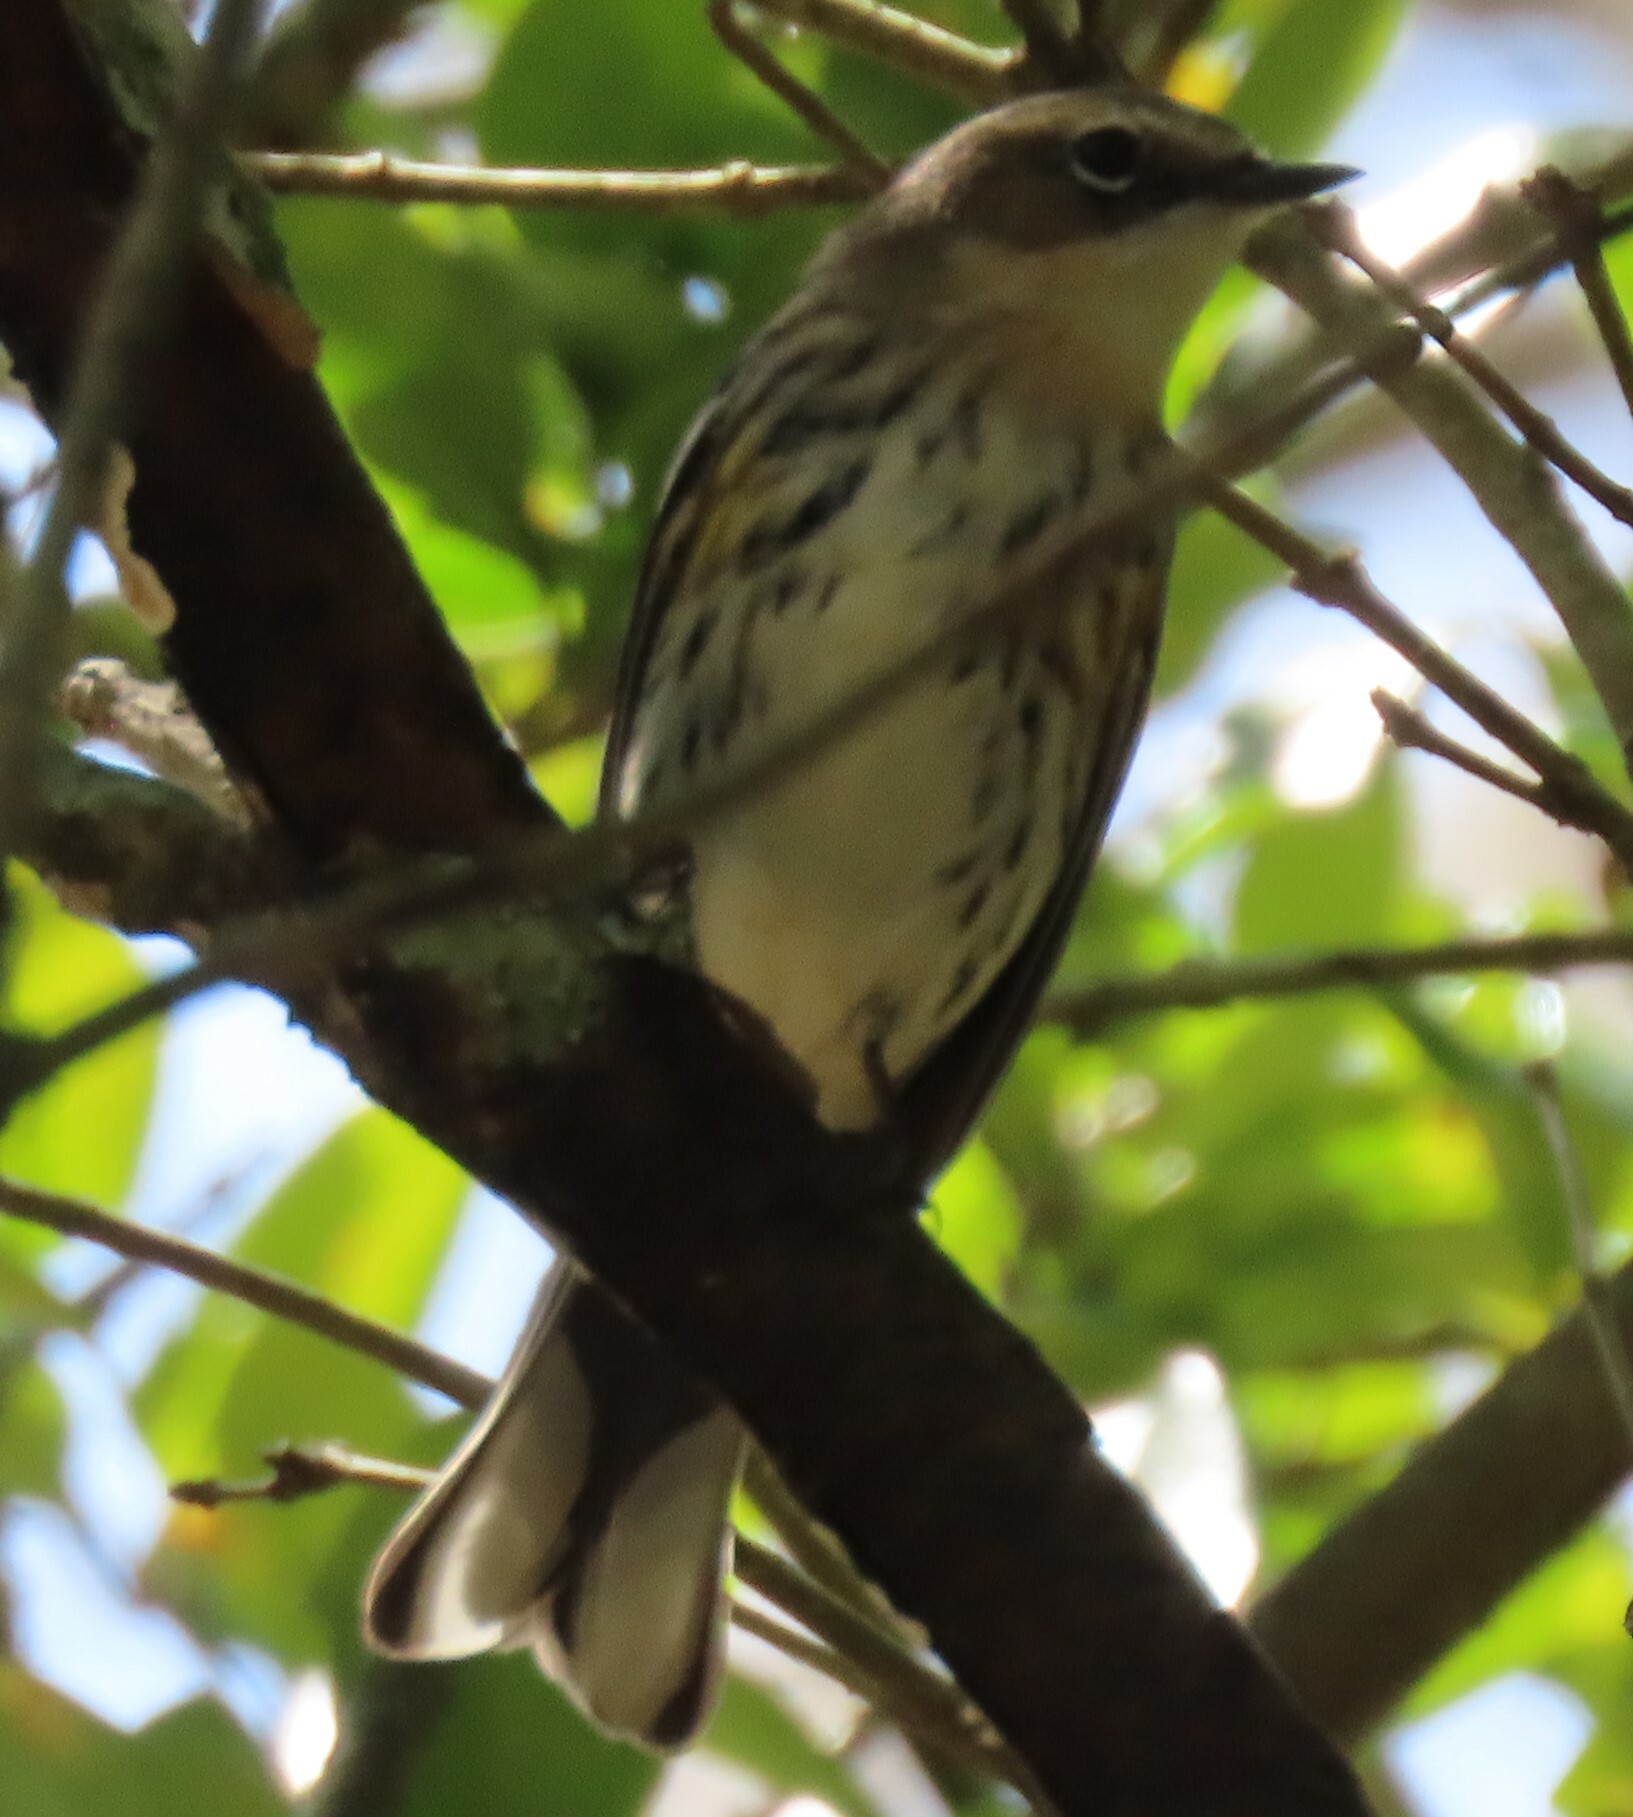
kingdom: Animalia
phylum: Chordata
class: Aves
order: Passeriformes
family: Parulidae
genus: Setophaga
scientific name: Setophaga coronata
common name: Myrtle warbler
